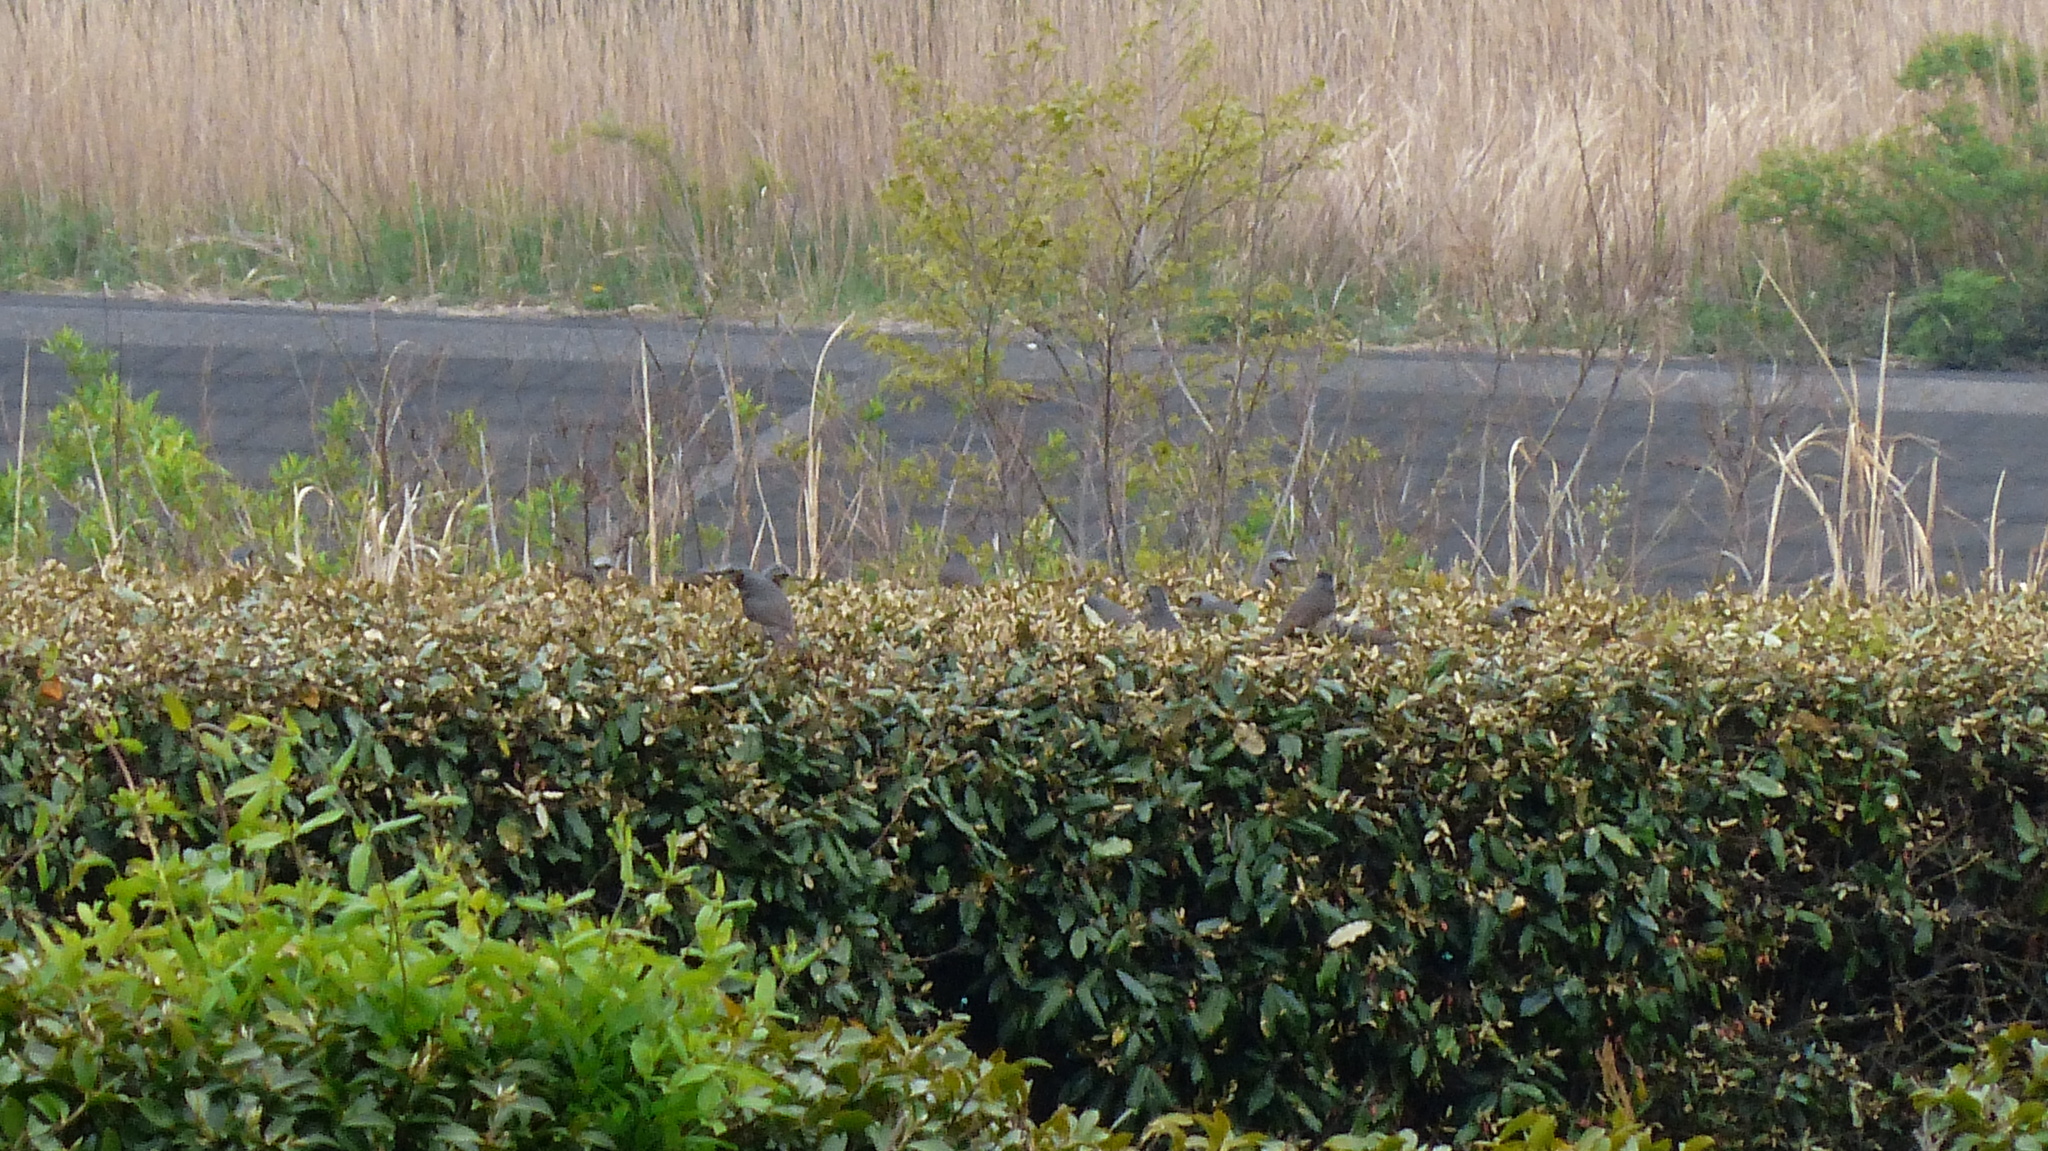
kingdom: Animalia
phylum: Chordata
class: Aves
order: Passeriformes
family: Pycnonotidae
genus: Hypsipetes
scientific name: Hypsipetes amaurotis
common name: Brown-eared bulbul
